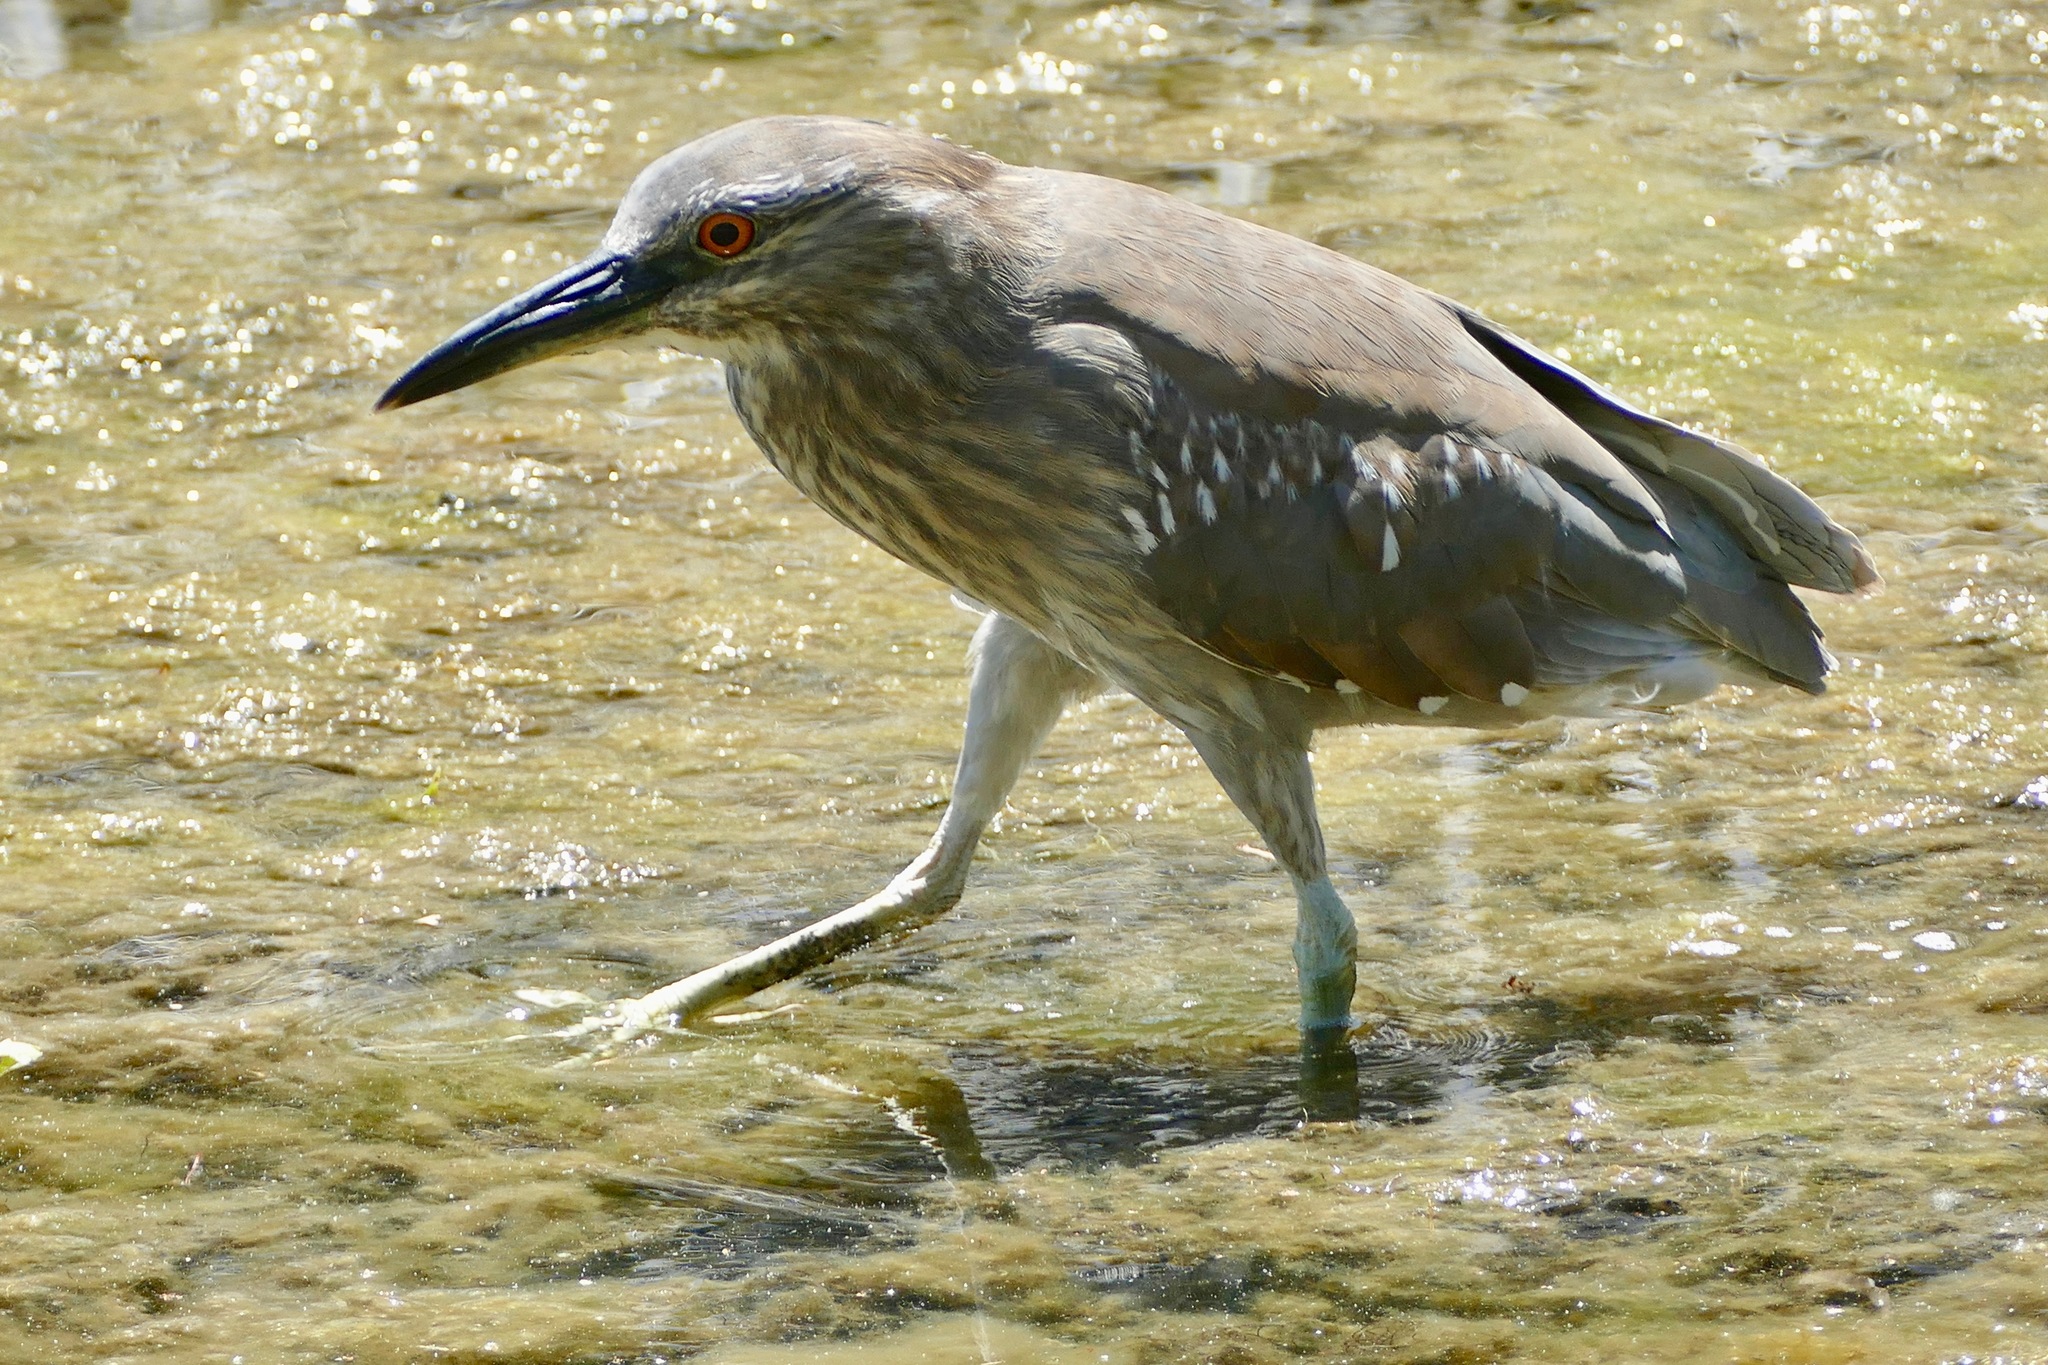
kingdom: Animalia
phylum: Chordata
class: Aves
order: Pelecaniformes
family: Ardeidae
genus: Nycticorax
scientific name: Nycticorax nycticorax
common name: Black-crowned night heron
